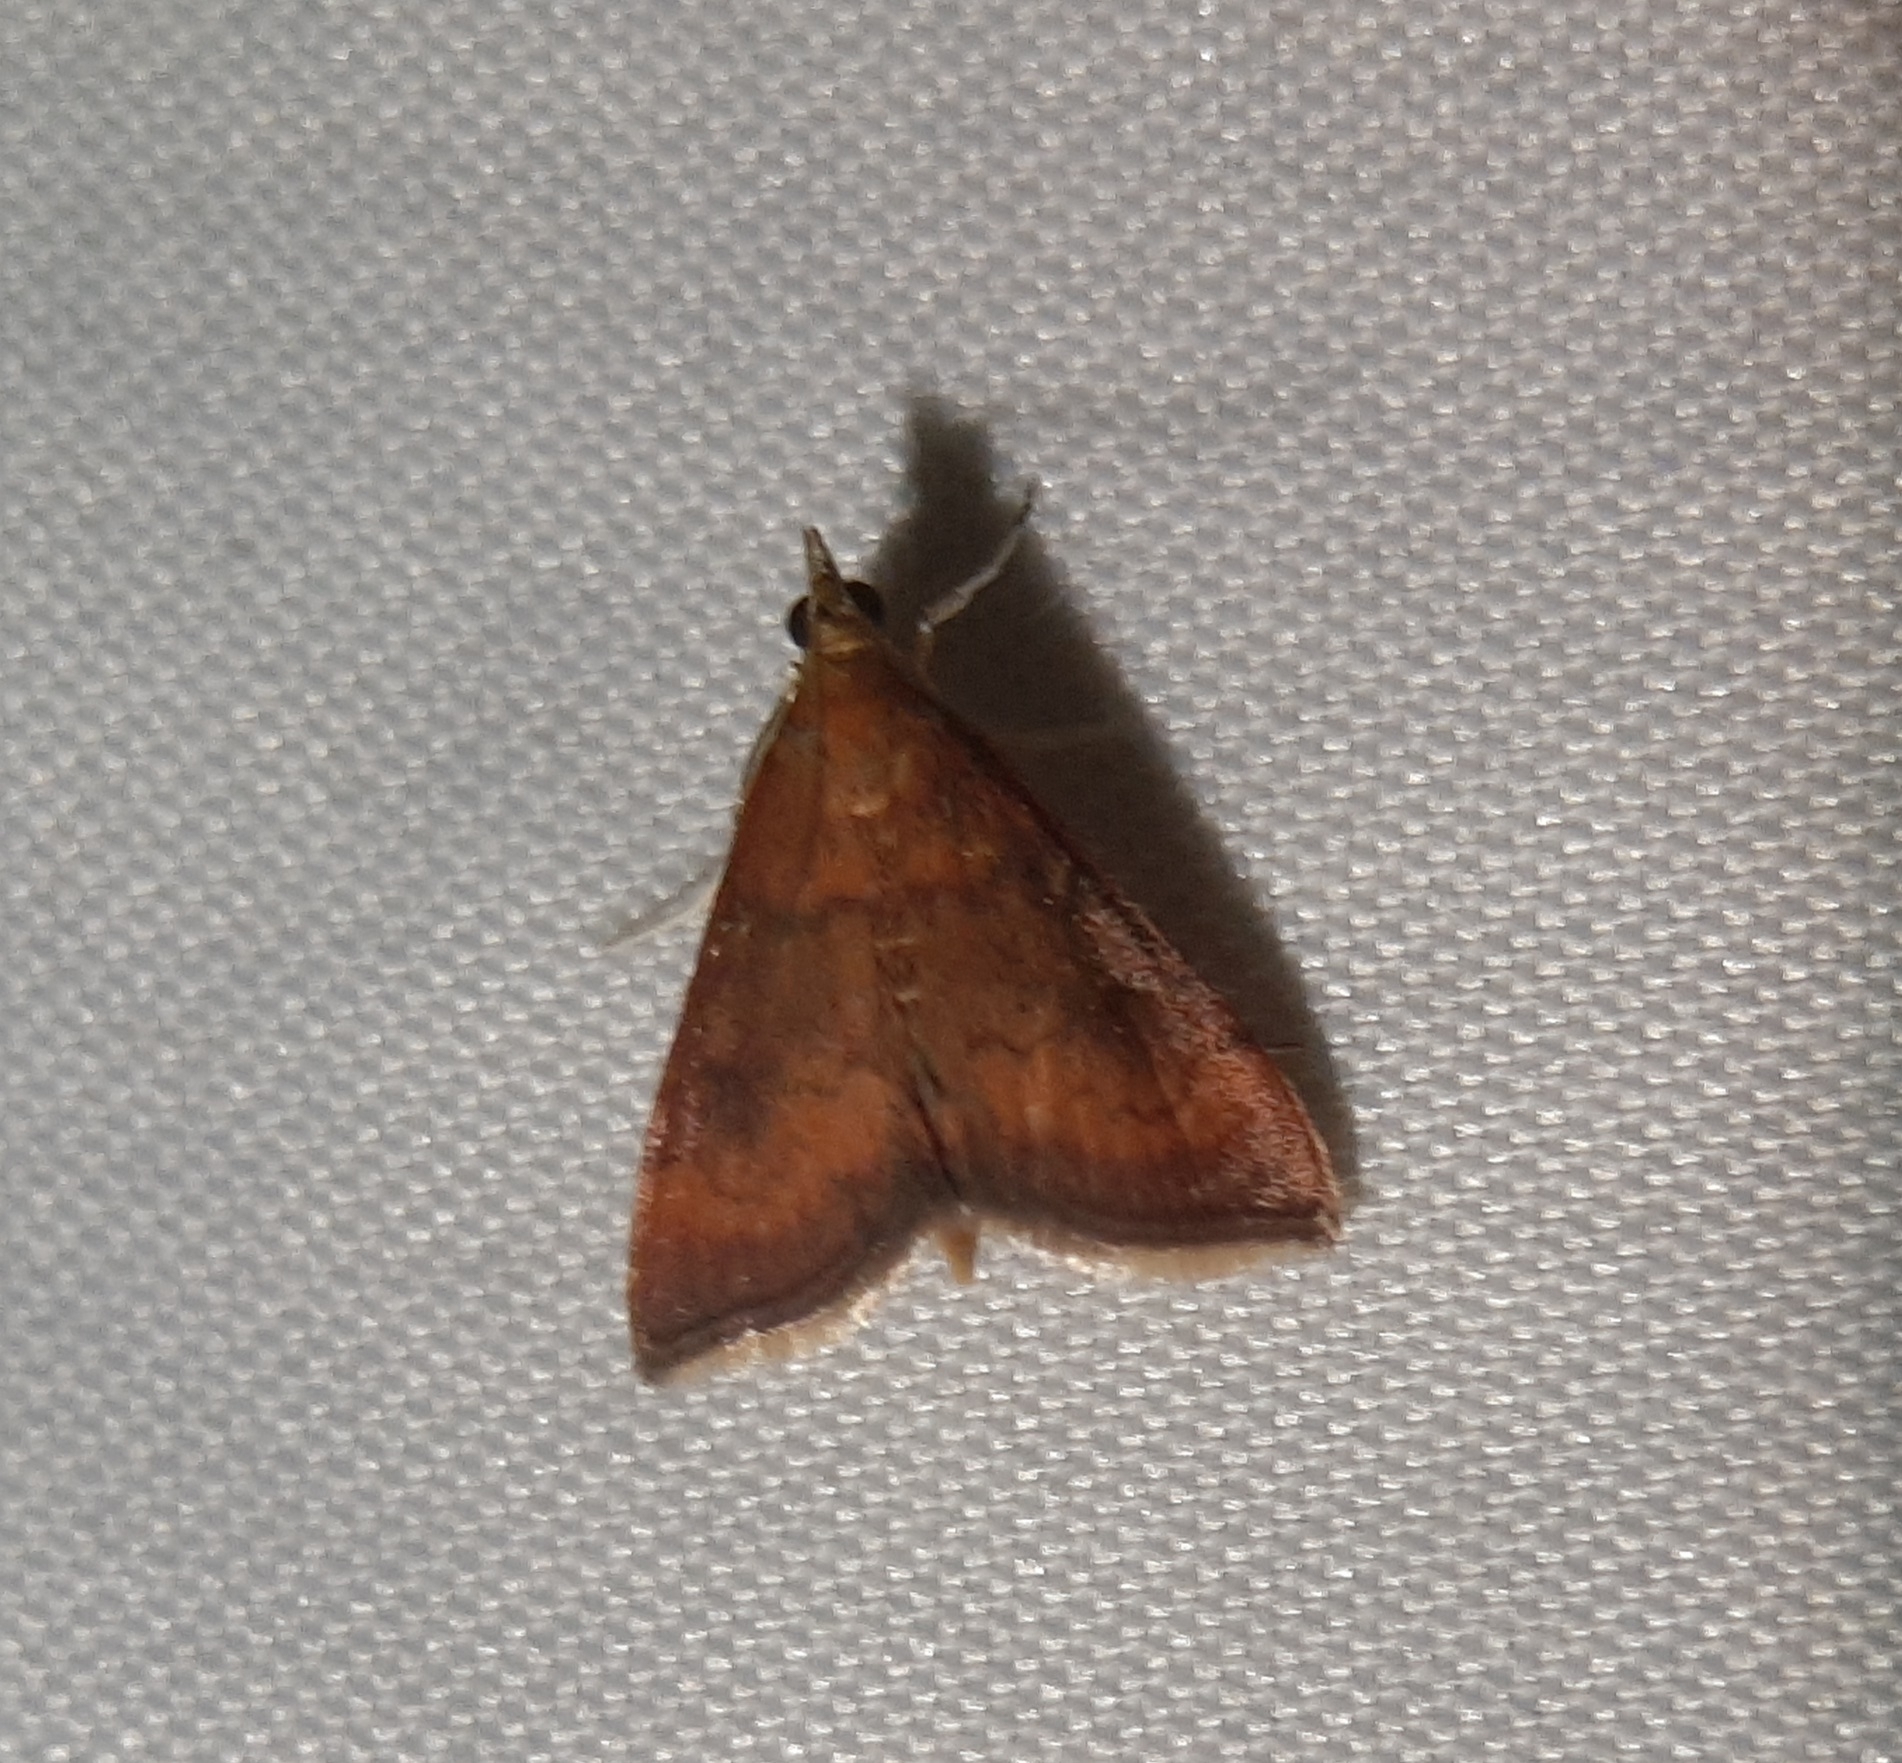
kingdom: Animalia
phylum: Arthropoda
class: Insecta
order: Lepidoptera
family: Crambidae
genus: Pyrausta
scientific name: Pyrausta rubricalis
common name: Variable reddish pyrausta
